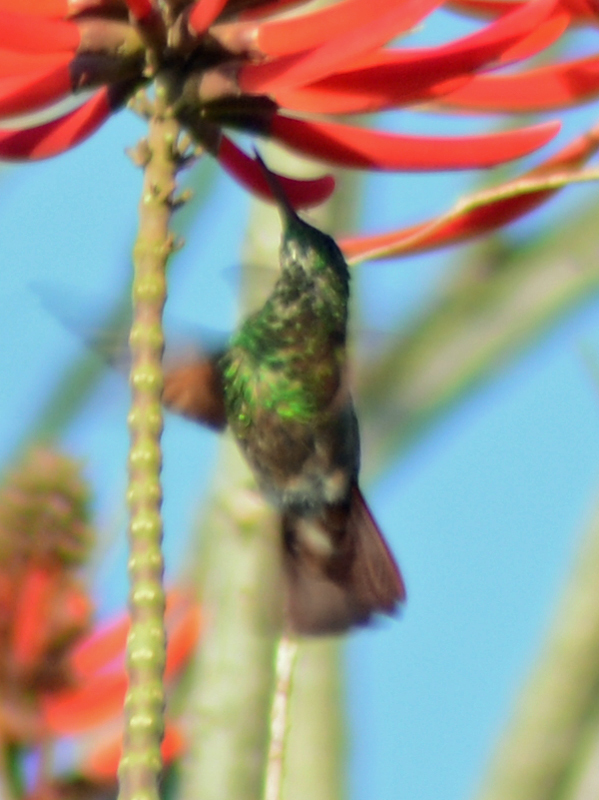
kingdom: Animalia
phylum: Chordata
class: Aves
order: Apodiformes
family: Trochilidae
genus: Saucerottia
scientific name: Saucerottia beryllina
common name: Berylline hummingbird
